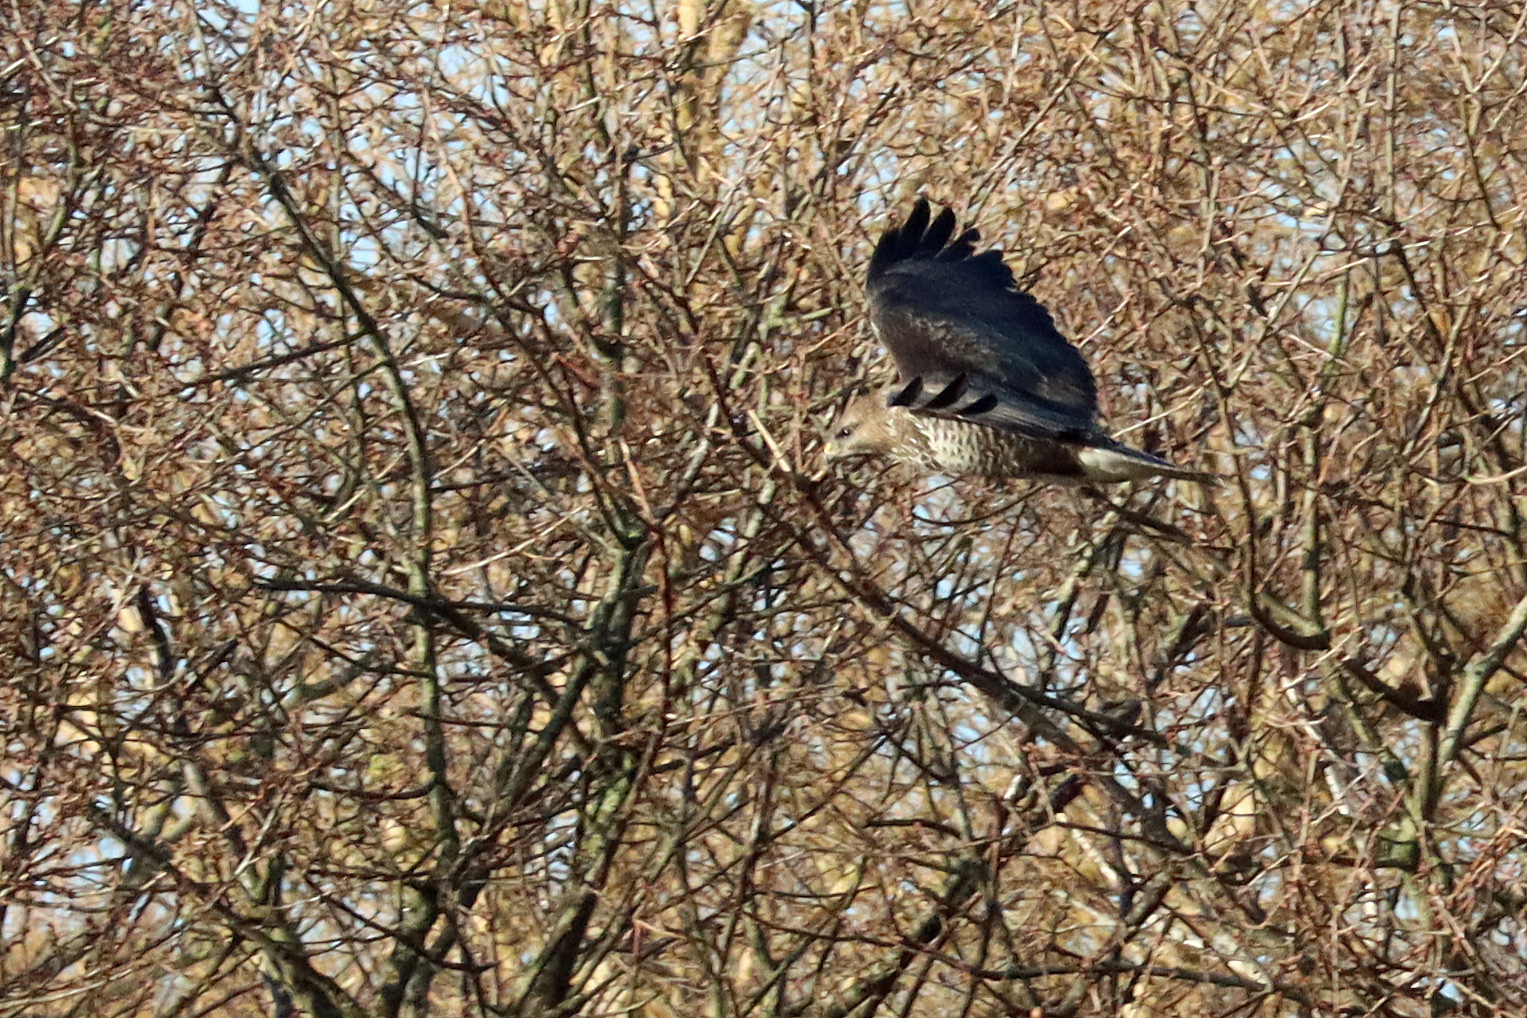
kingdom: Animalia
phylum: Chordata
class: Aves
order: Accipitriformes
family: Accipitridae
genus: Buteo
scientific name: Buteo buteo
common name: Common buzzard
